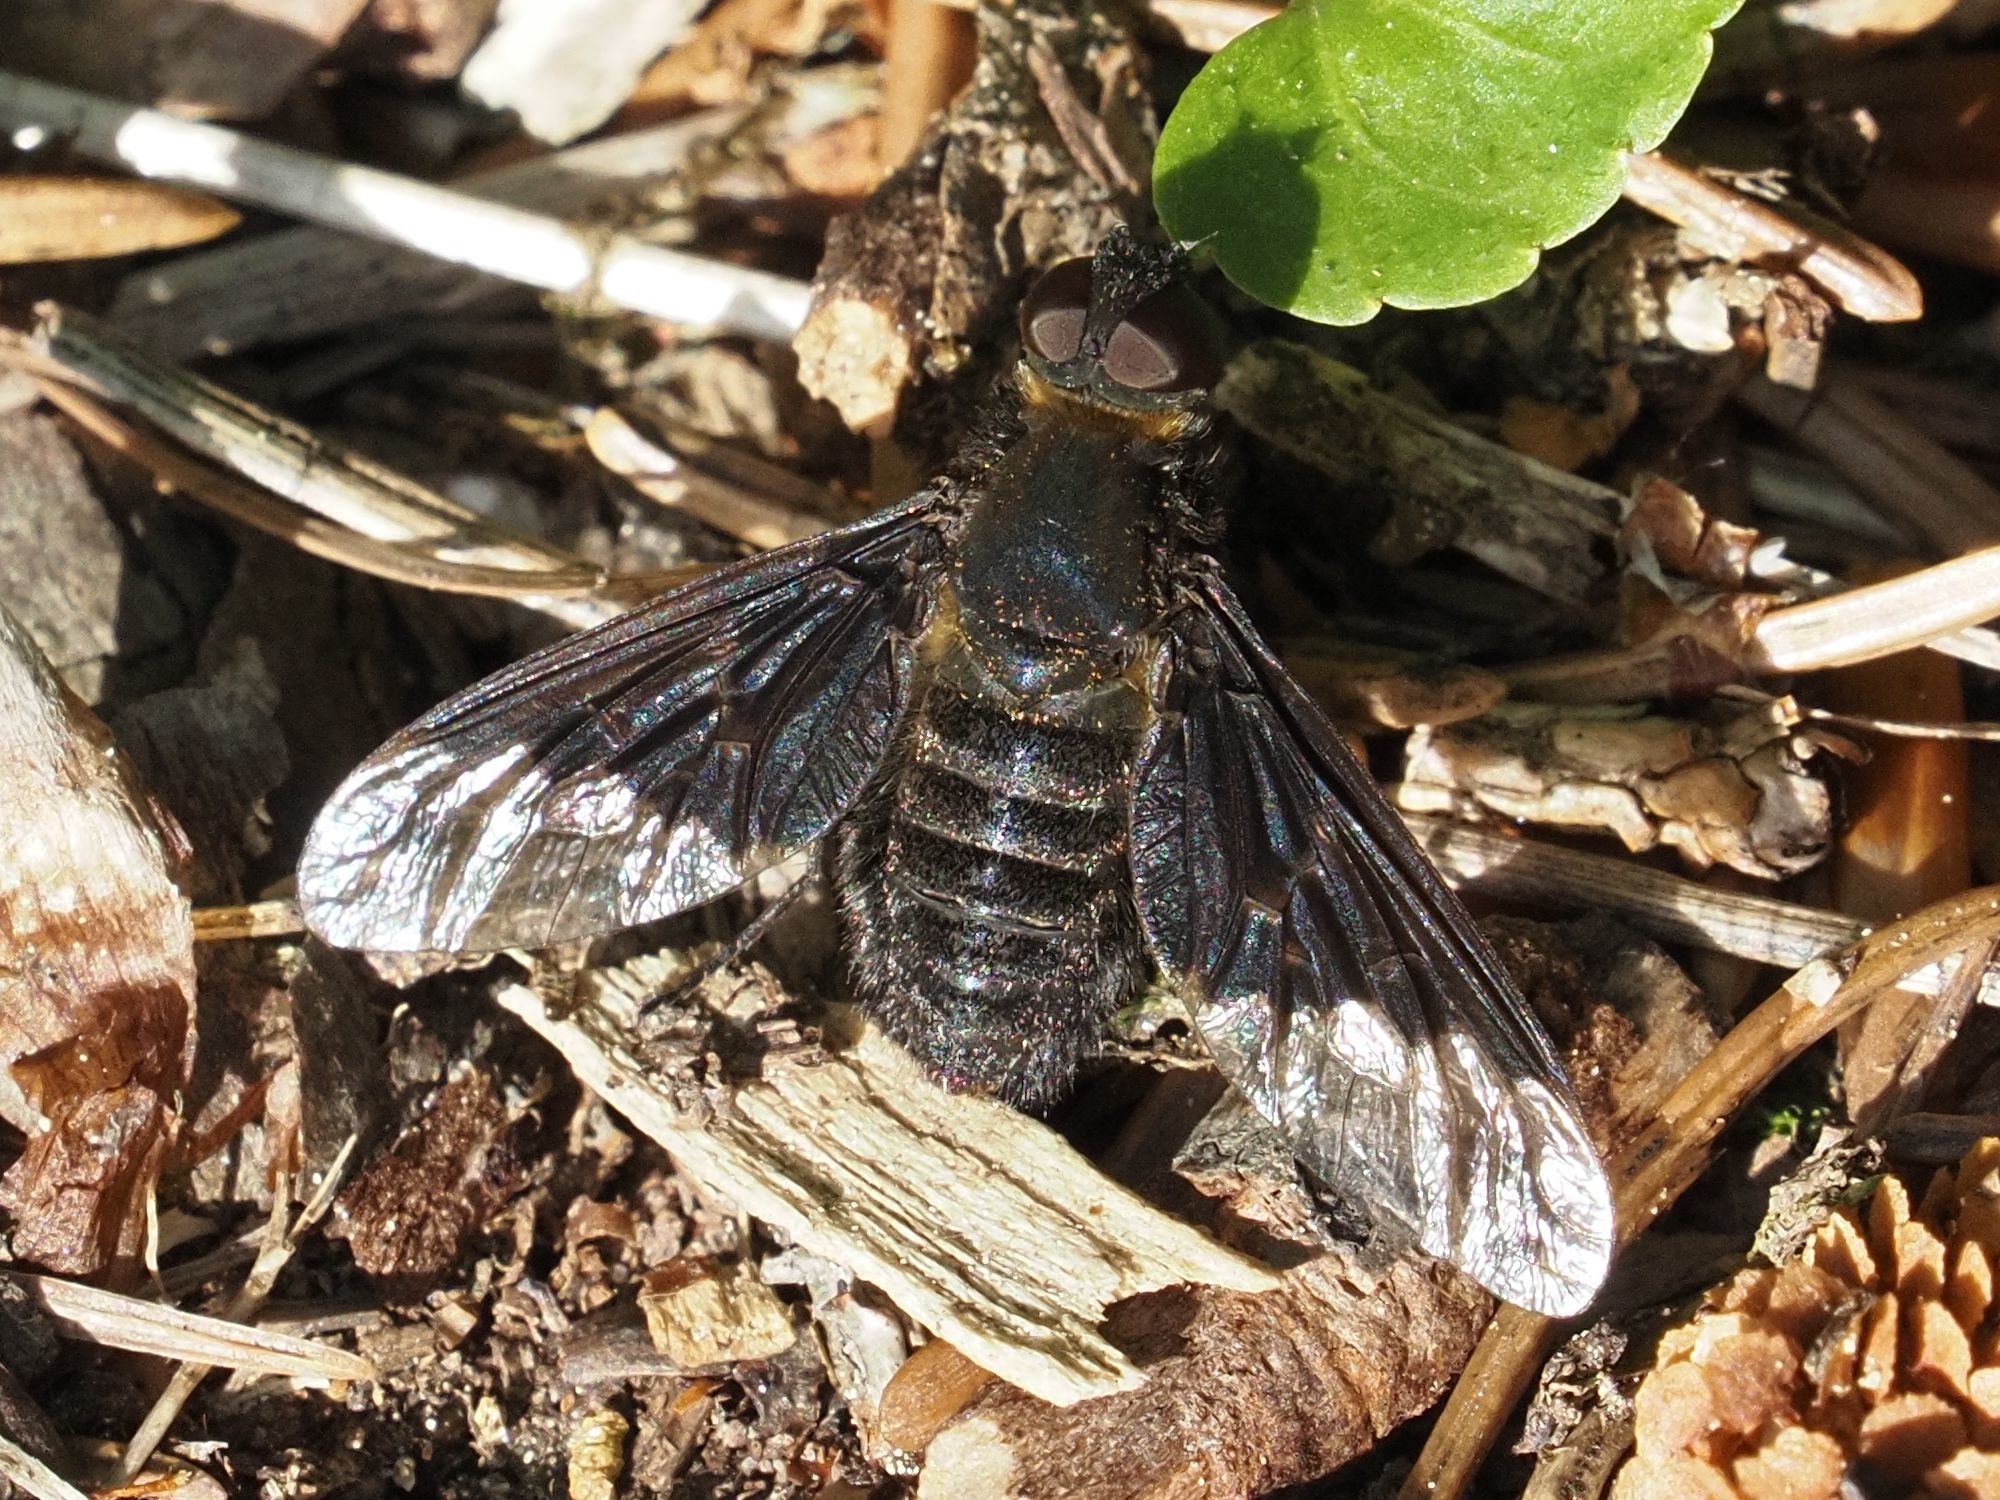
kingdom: Animalia
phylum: Arthropoda
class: Insecta
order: Diptera
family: Bombyliidae
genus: Hemipenthes
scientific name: Hemipenthes morio
